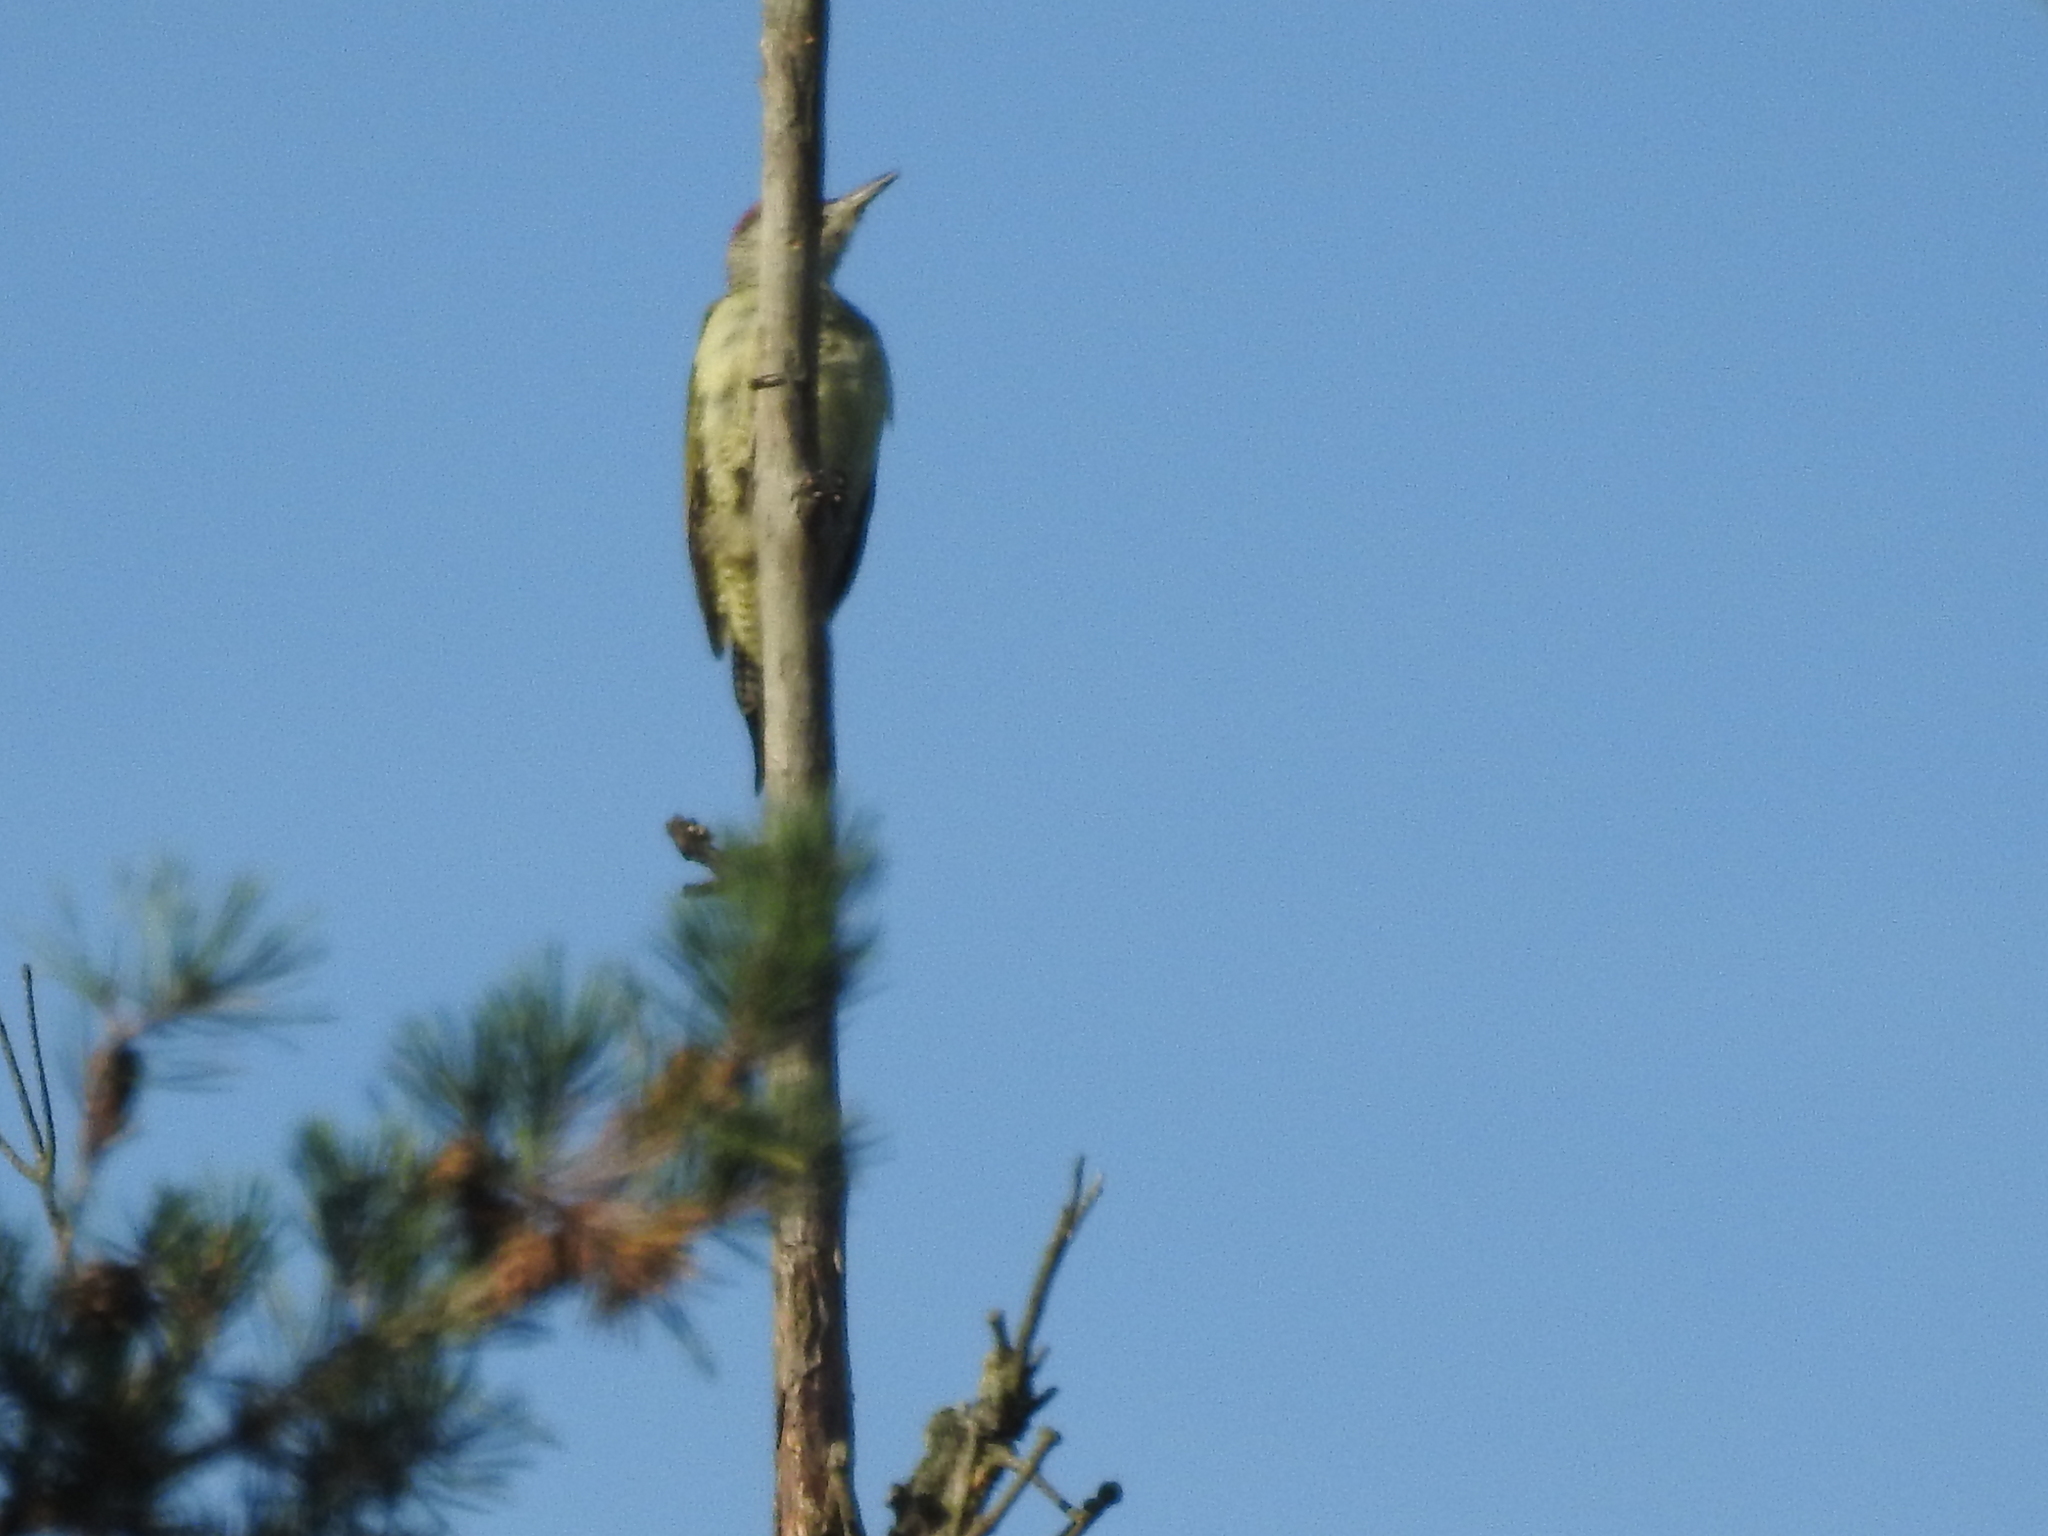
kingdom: Animalia
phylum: Chordata
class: Aves
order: Piciformes
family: Picidae
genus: Picus
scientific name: Picus canus
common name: Grey-headed woodpecker
